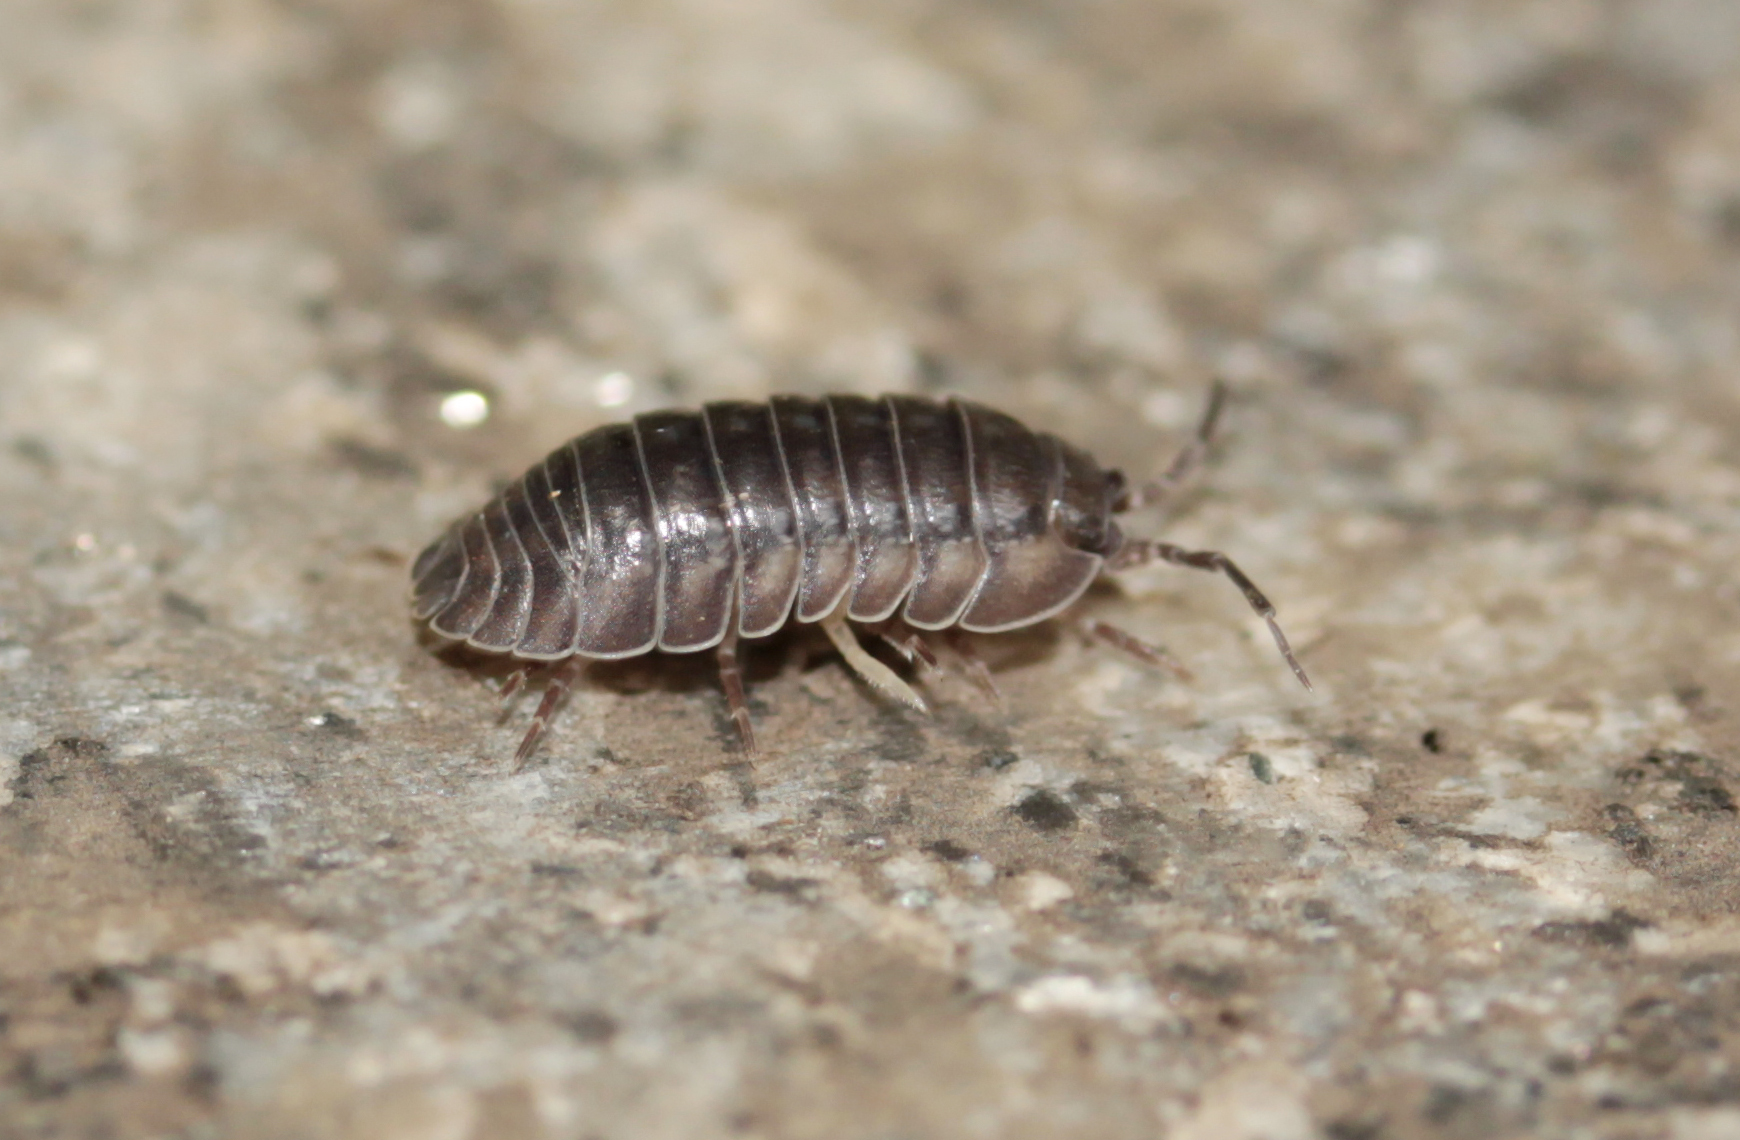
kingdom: Animalia
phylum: Arthropoda
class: Malacostraca
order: Isopoda
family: Armadillidiidae
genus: Armadillidium
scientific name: Armadillidium nasatum
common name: Isopod
